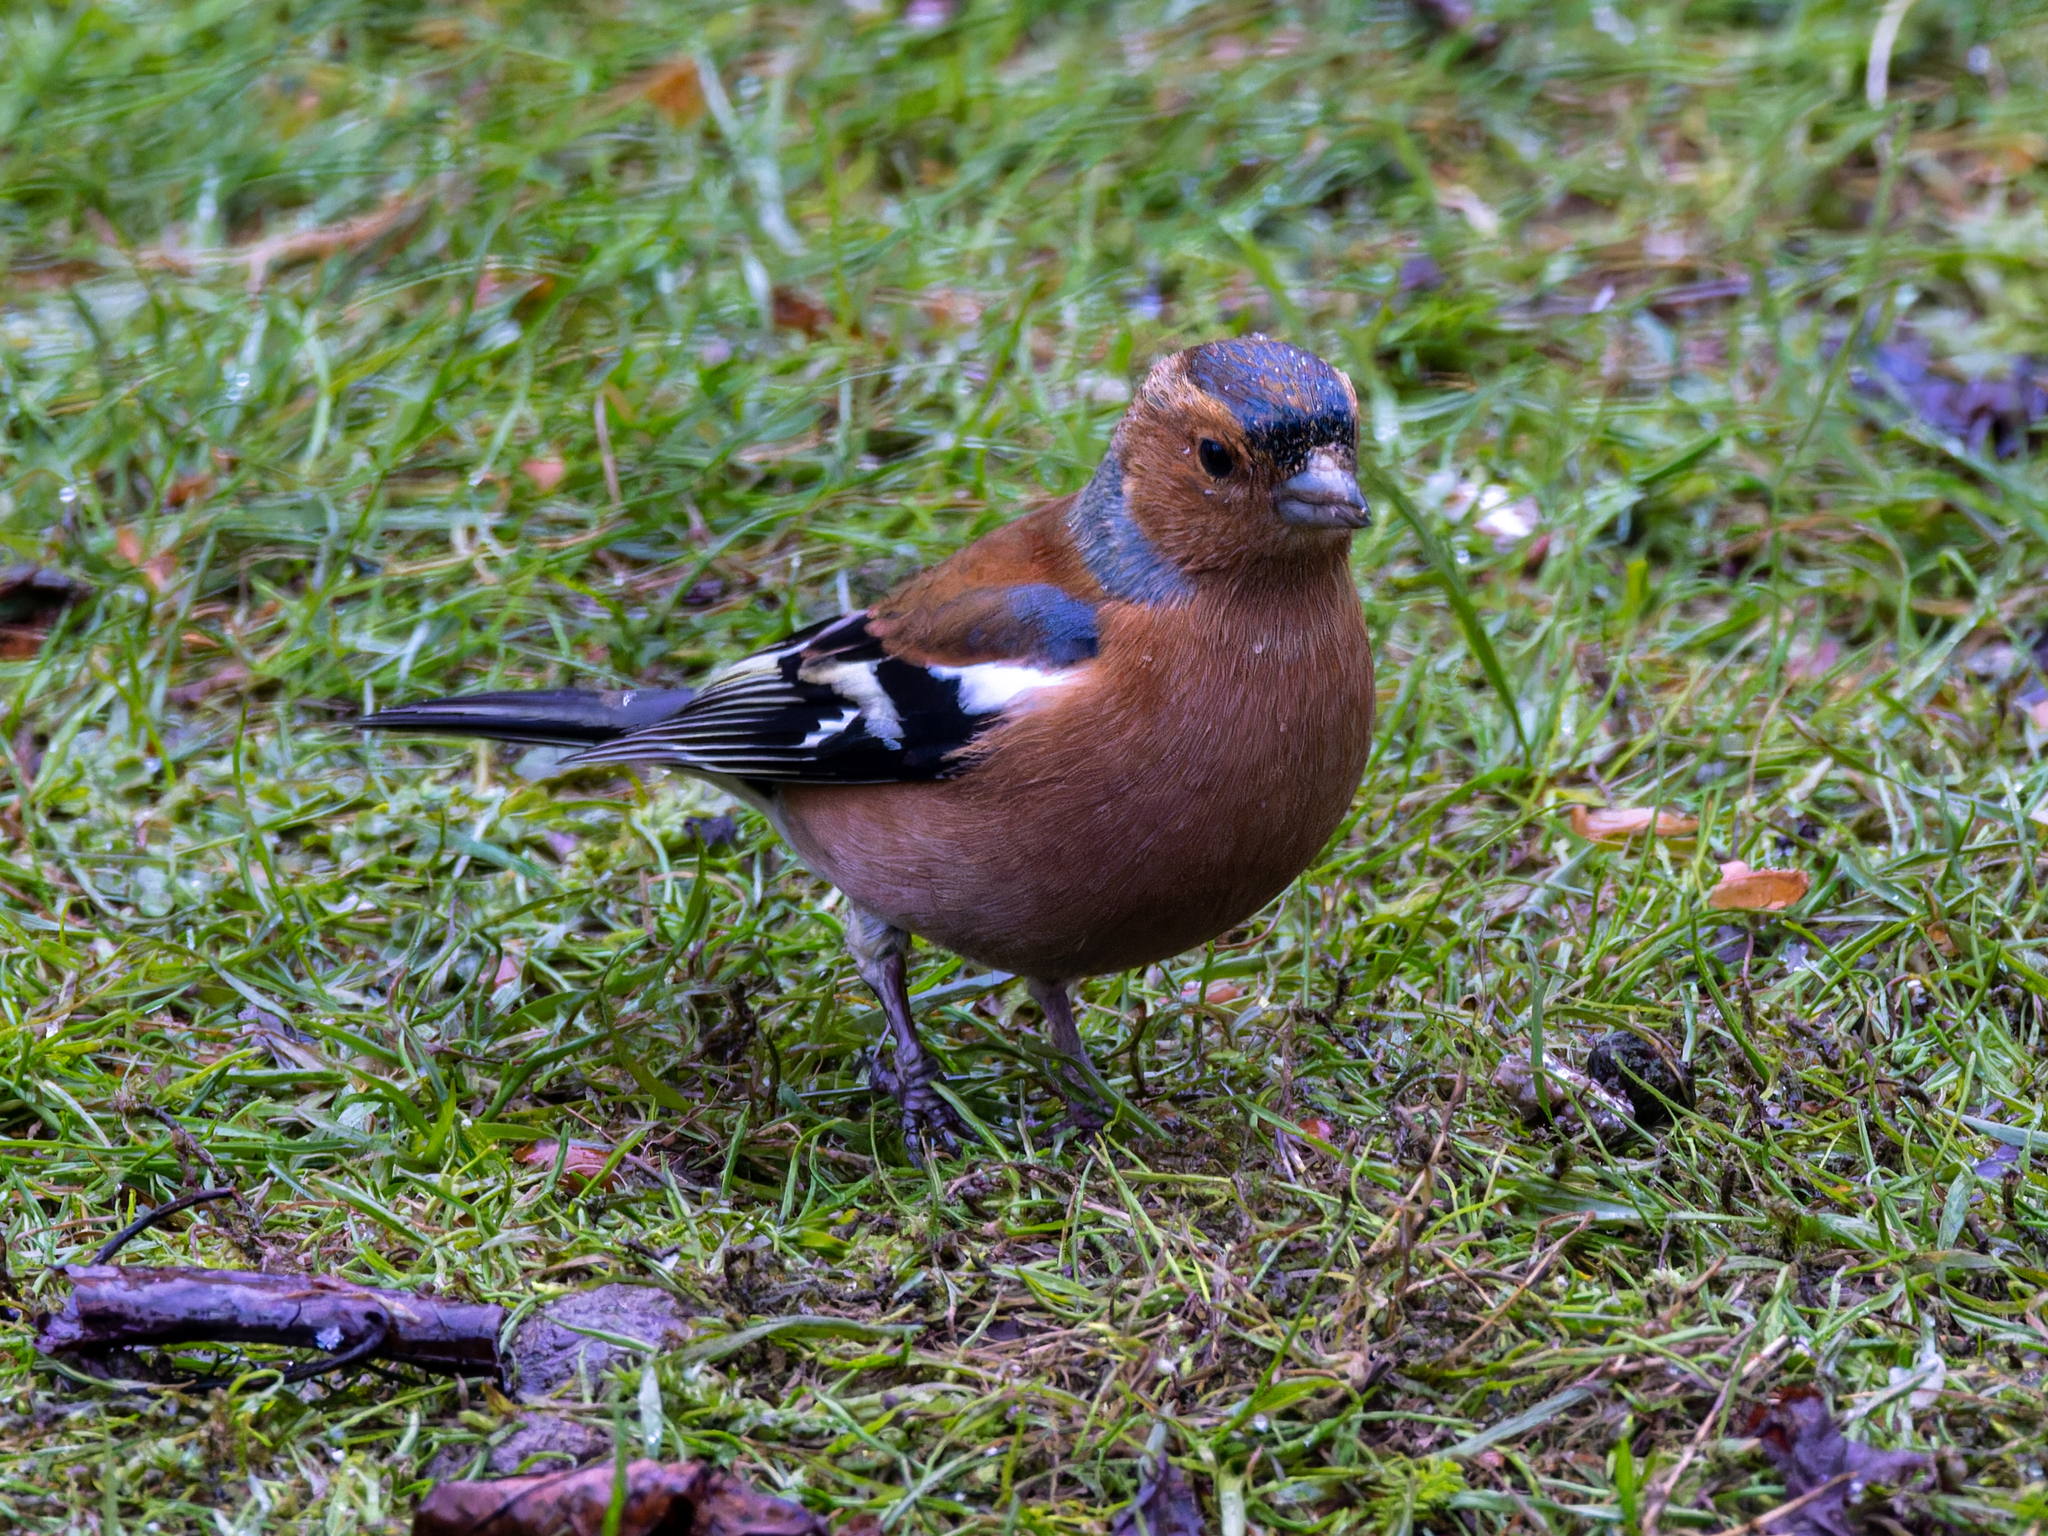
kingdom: Animalia
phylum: Chordata
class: Aves
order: Passeriformes
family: Fringillidae
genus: Fringilla
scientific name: Fringilla coelebs
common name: Common chaffinch
